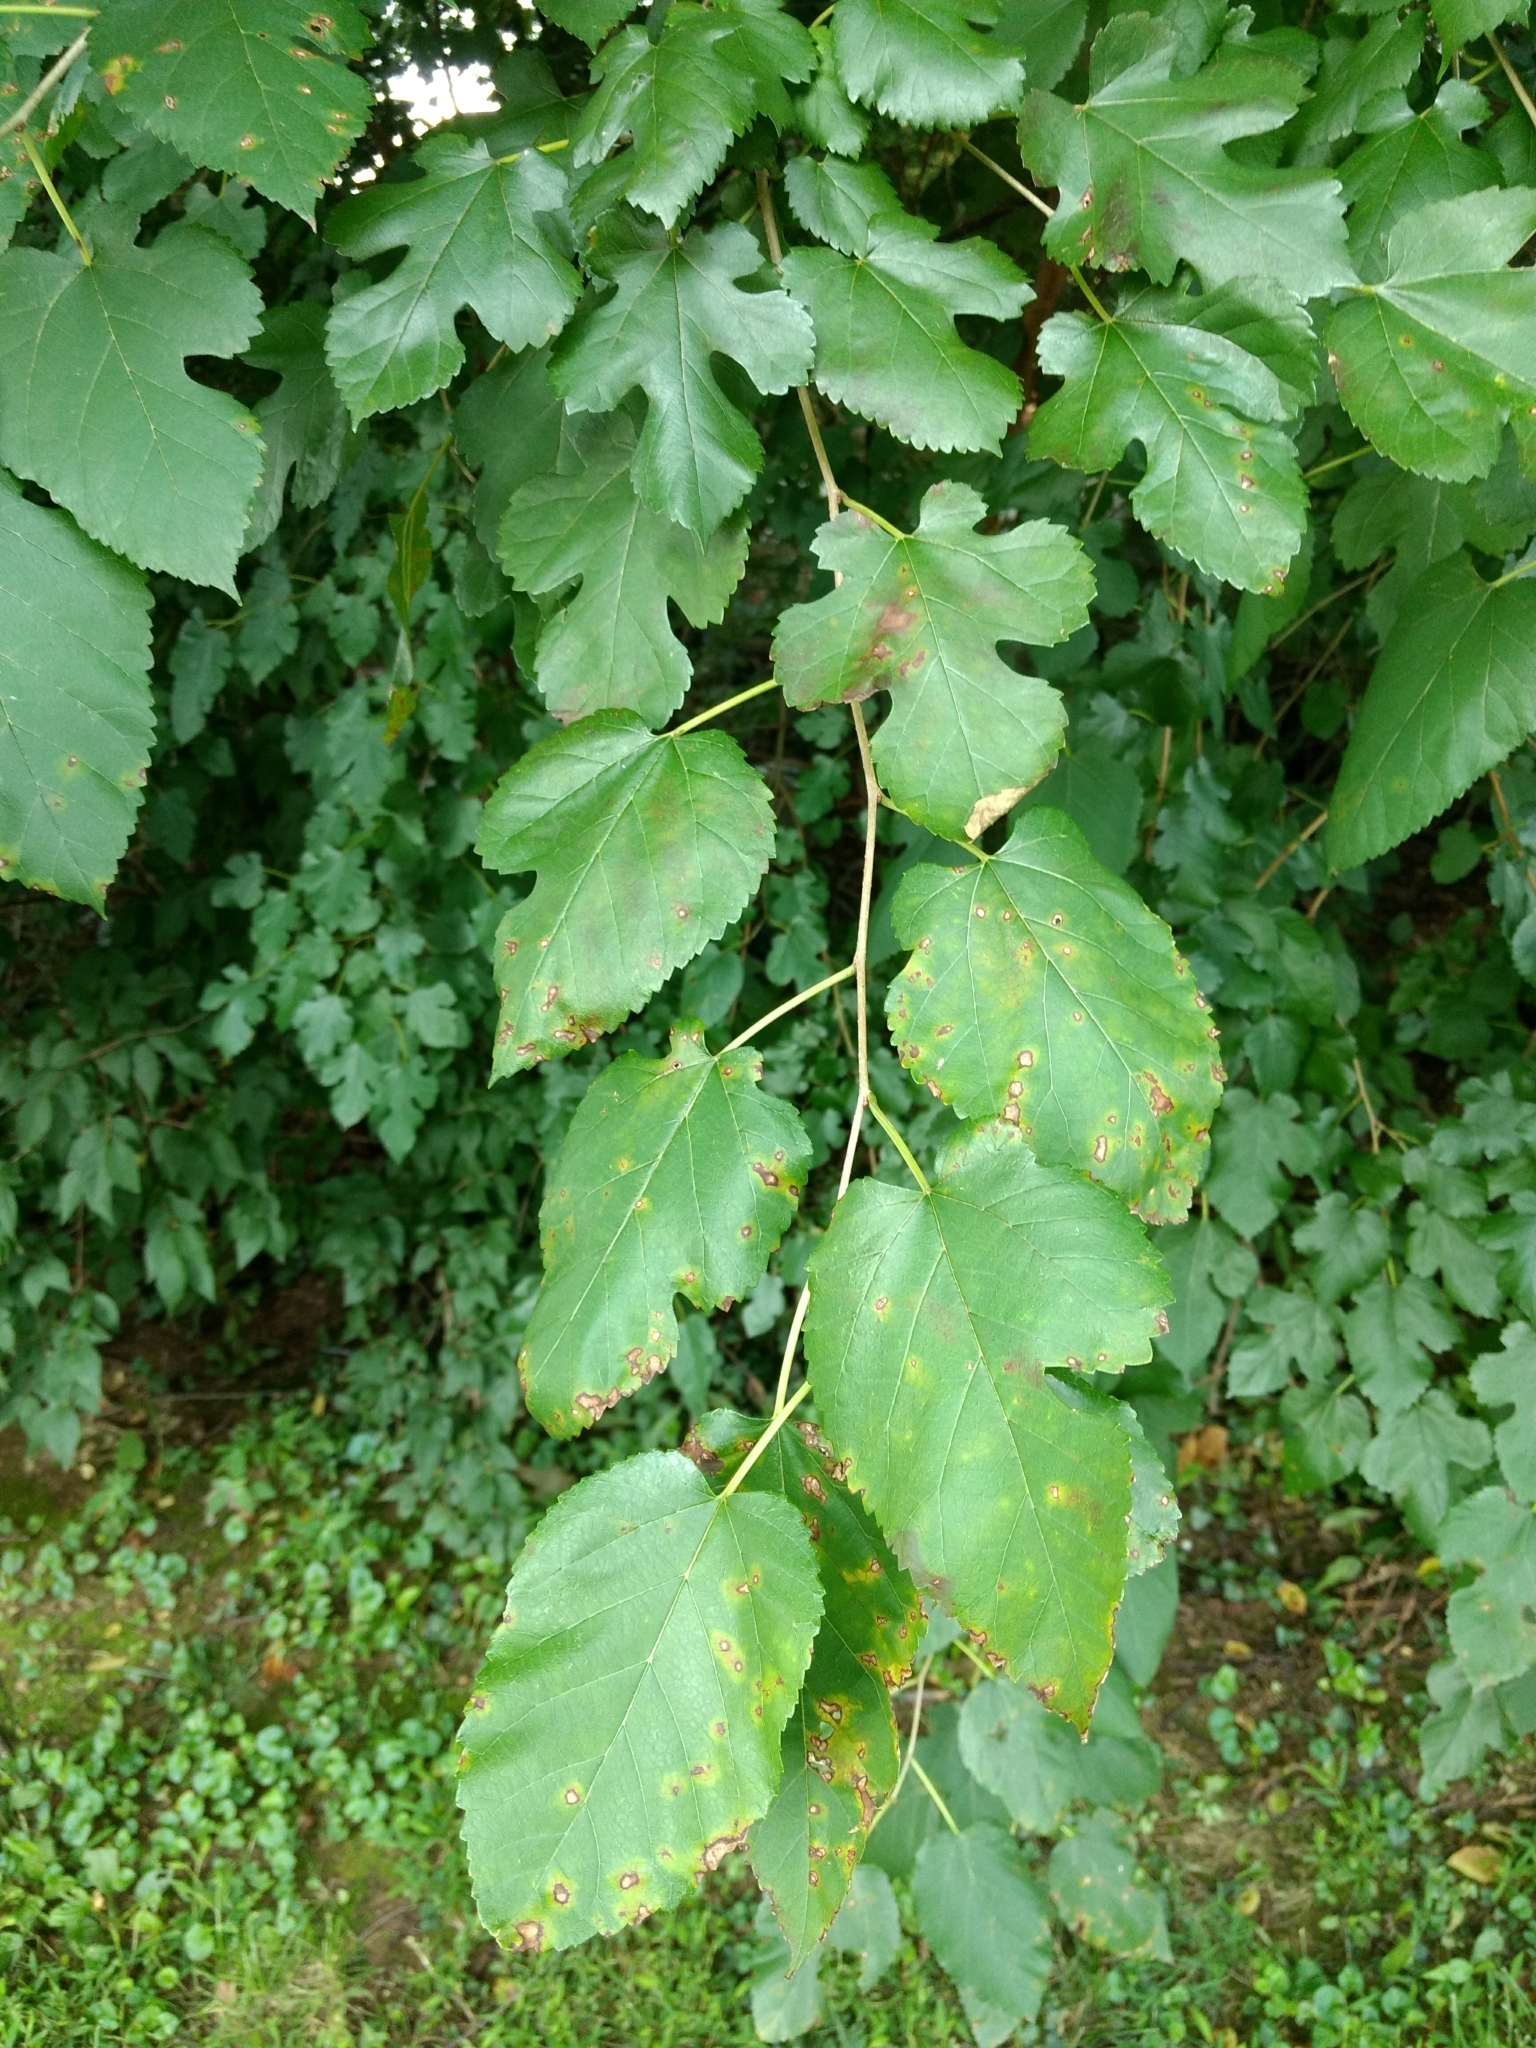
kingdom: Plantae
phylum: Tracheophyta
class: Magnoliopsida
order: Rosales
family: Moraceae
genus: Morus
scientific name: Morus alba
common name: White mulberry
